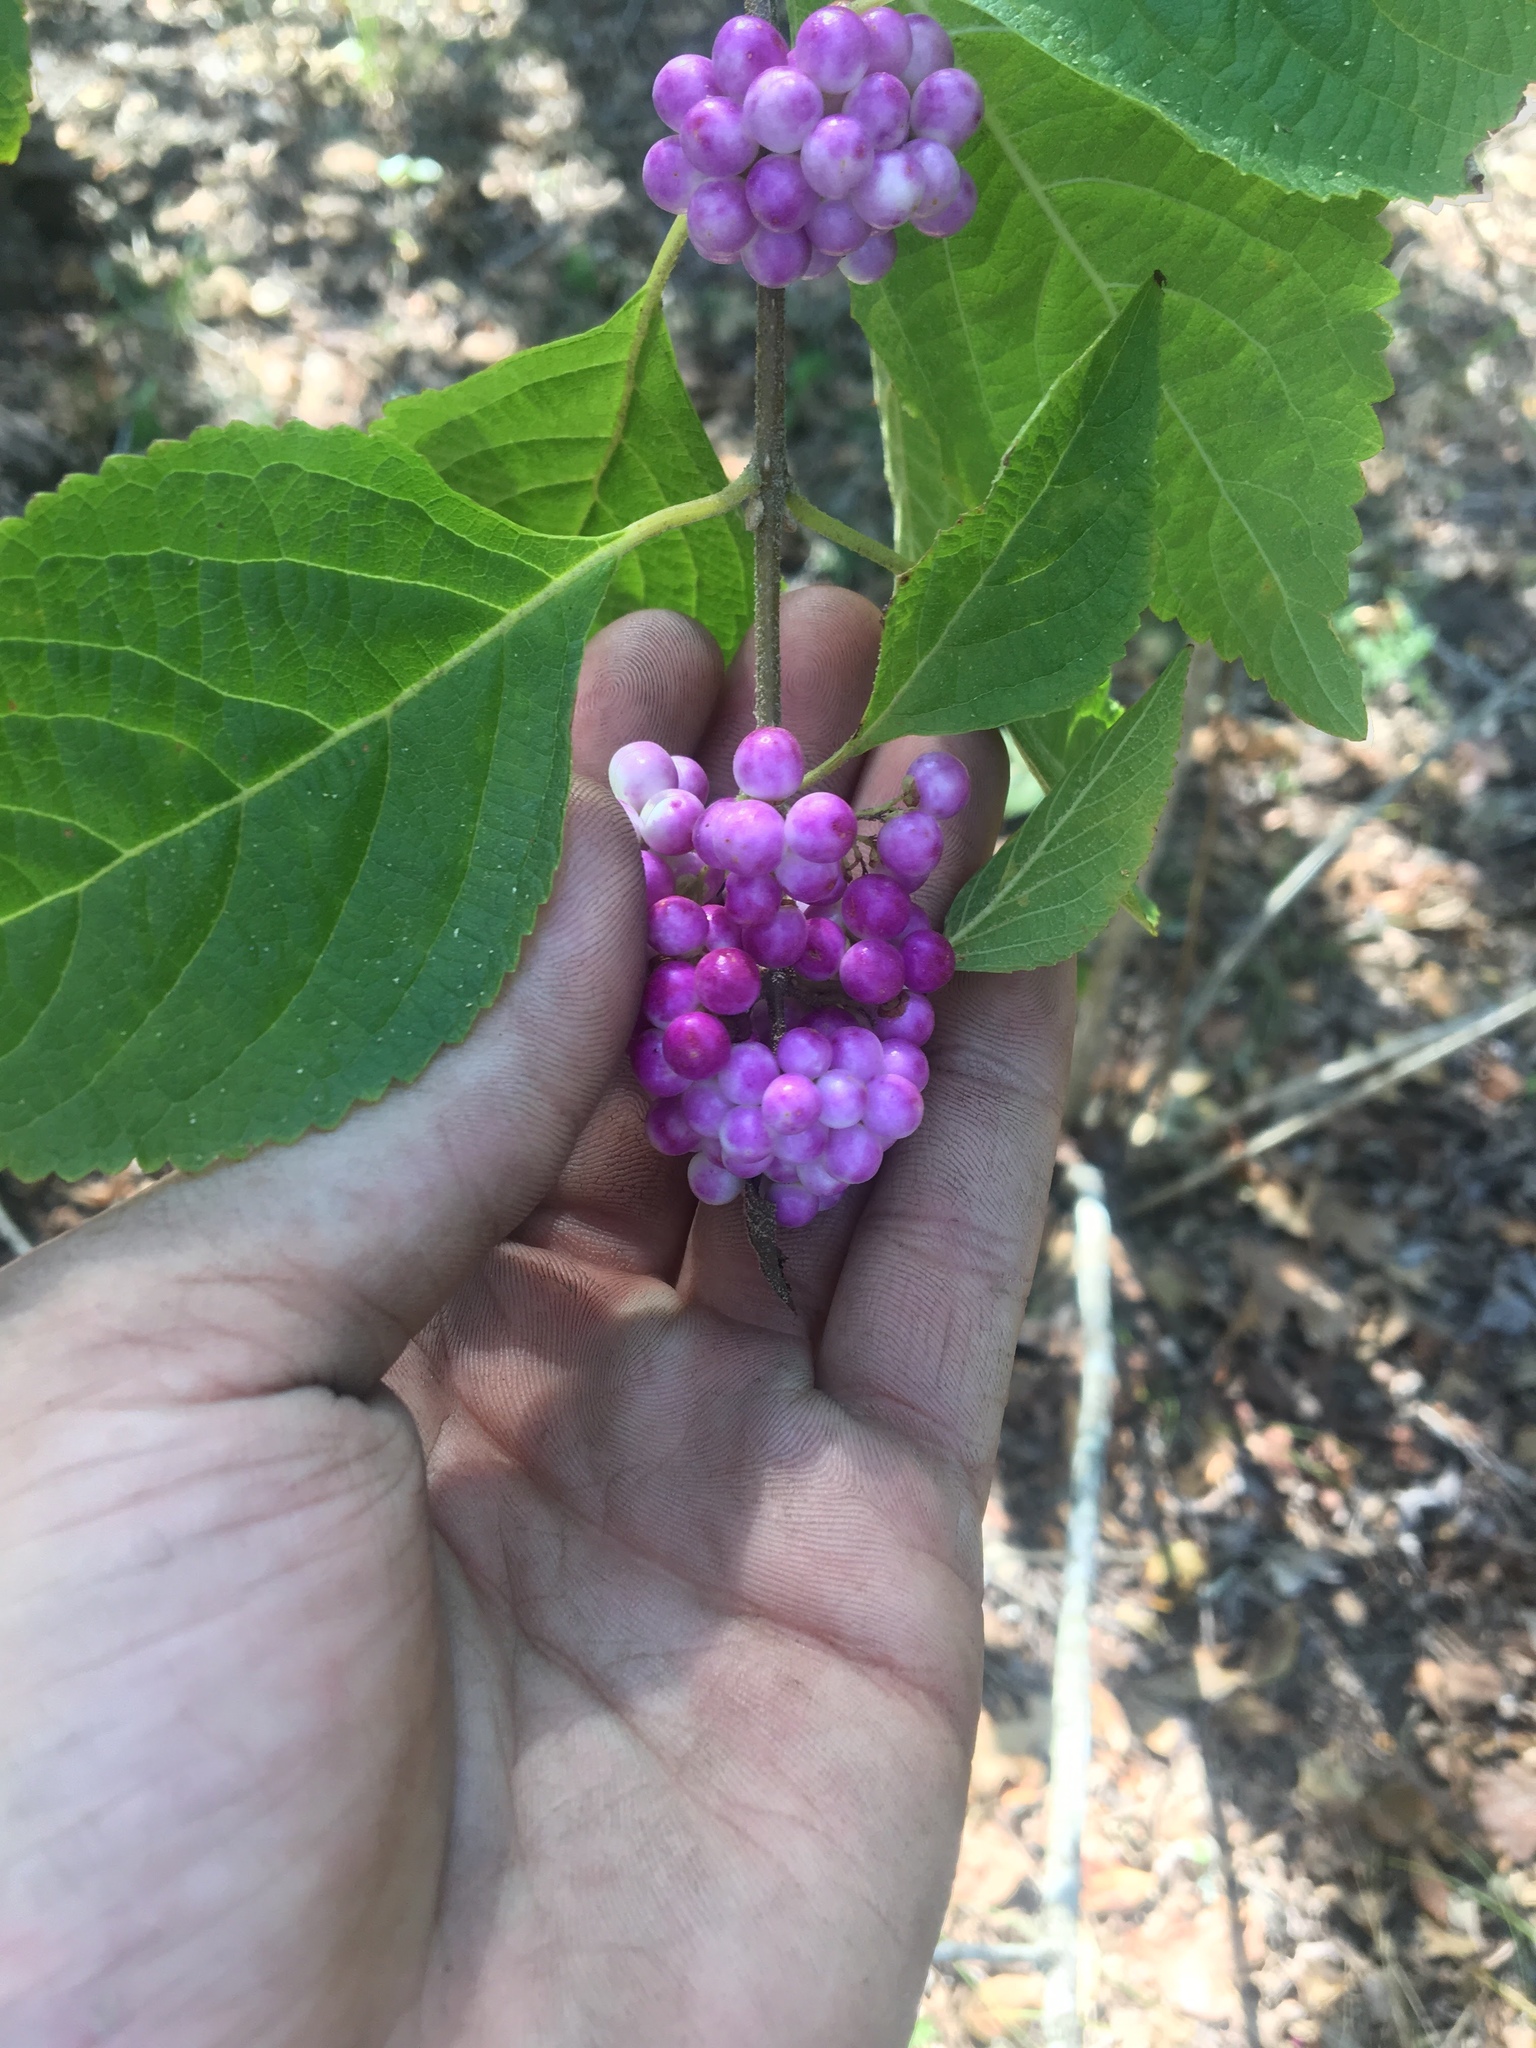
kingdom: Plantae
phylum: Tracheophyta
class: Magnoliopsida
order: Lamiales
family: Lamiaceae
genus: Callicarpa
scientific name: Callicarpa americana
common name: American beautyberry
